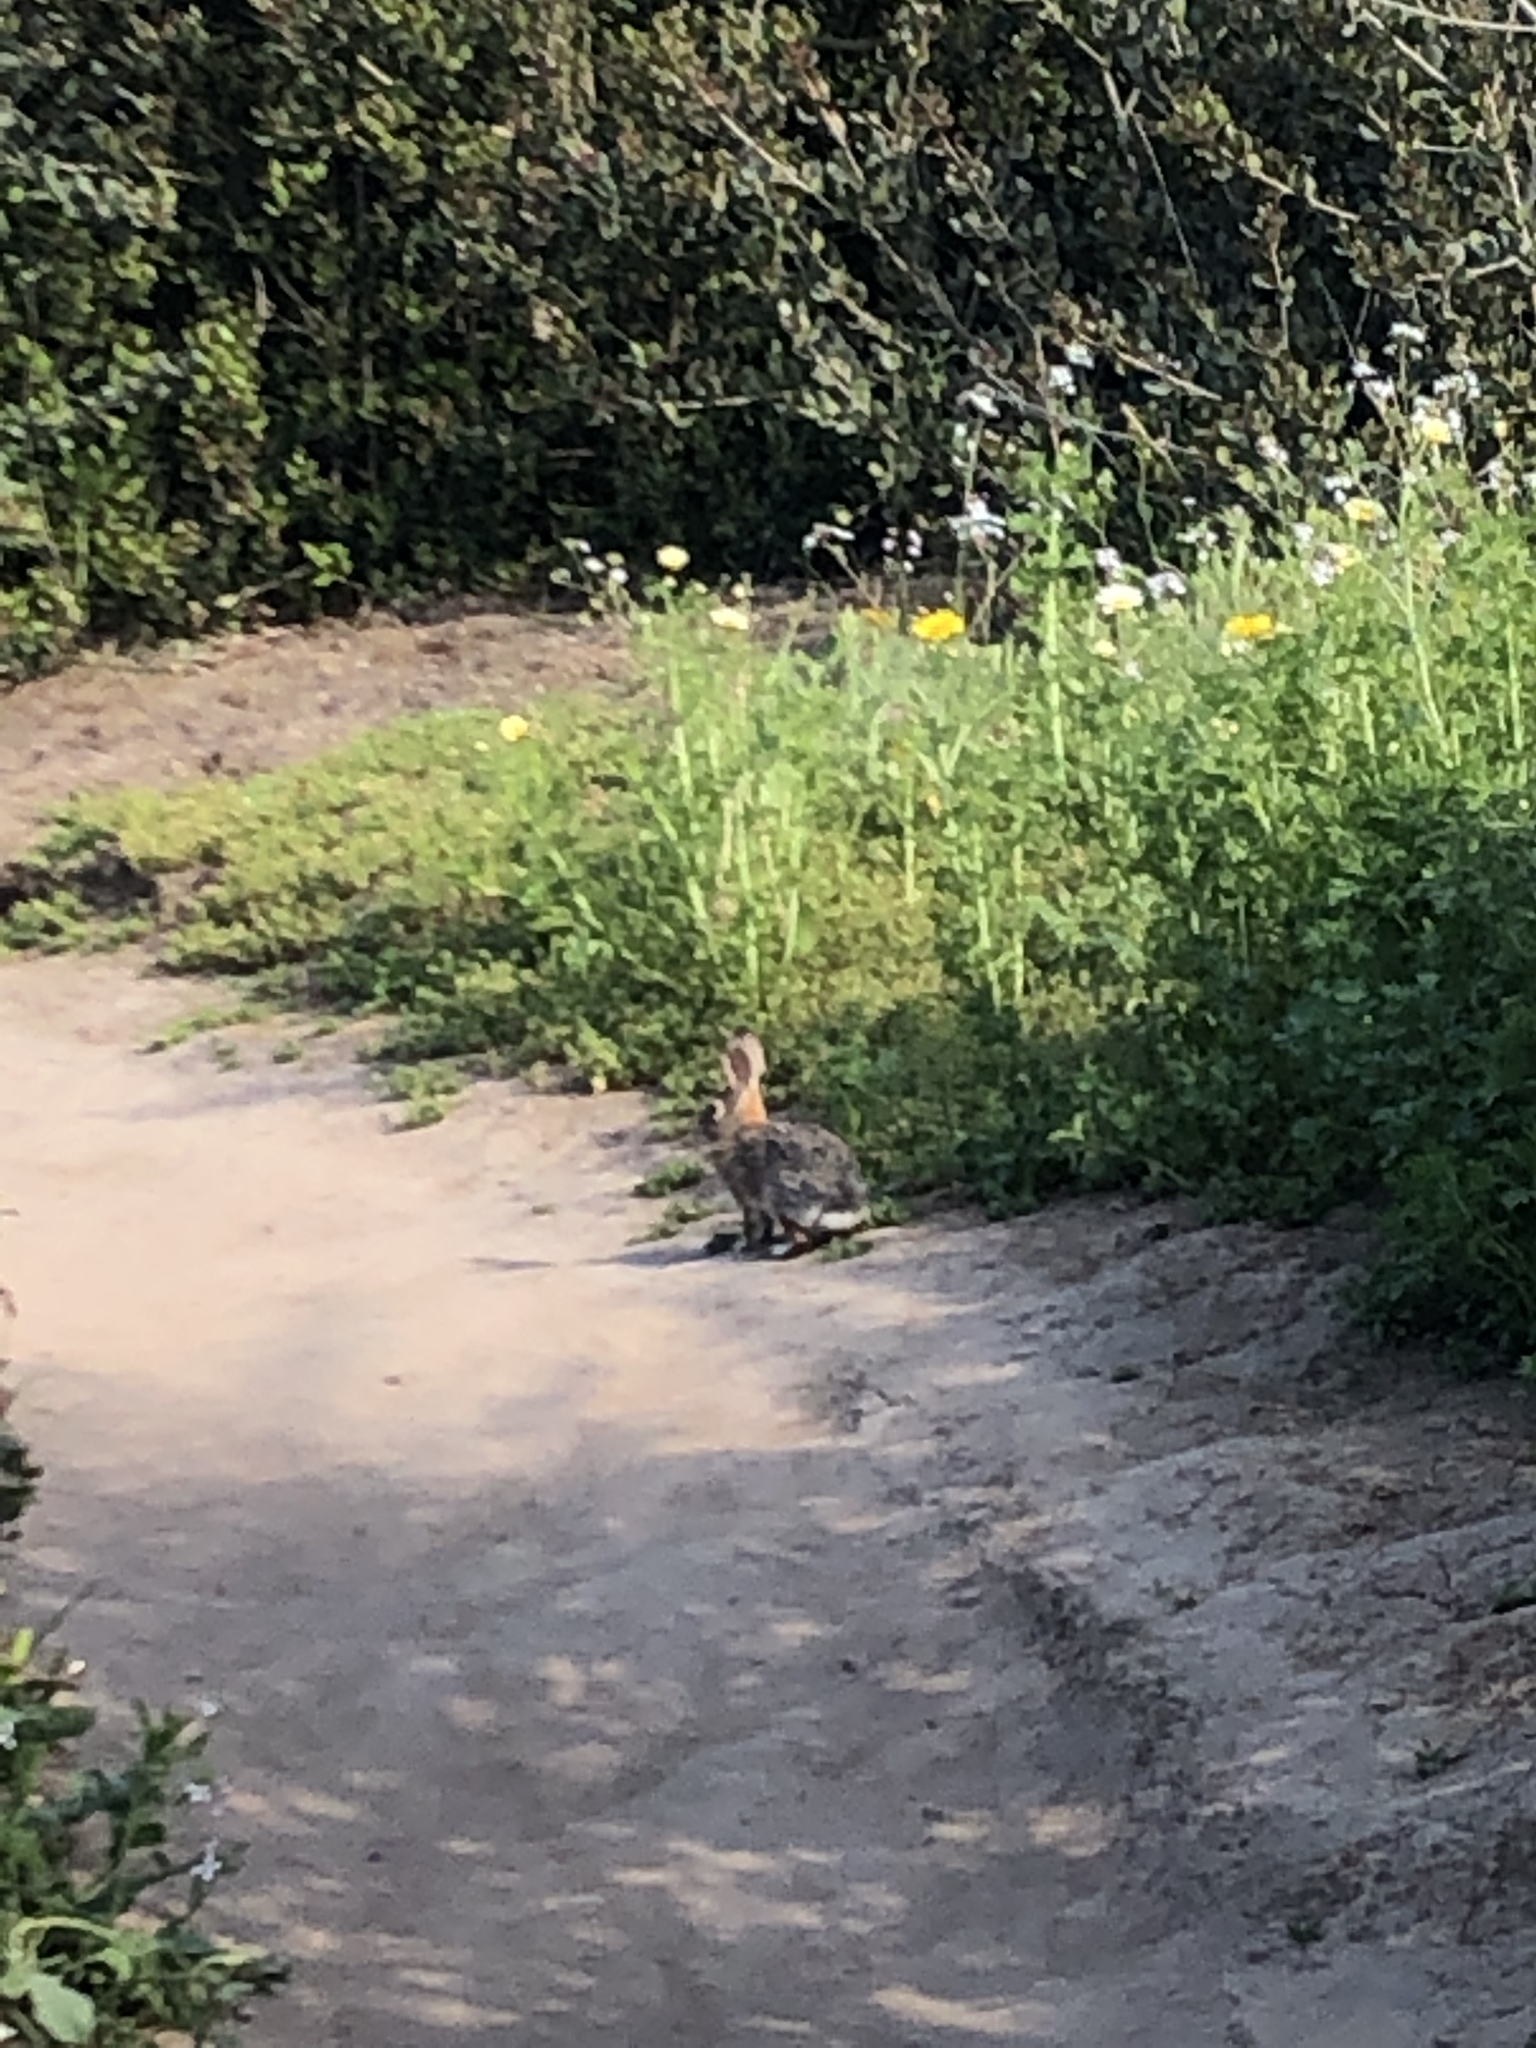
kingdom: Animalia
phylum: Chordata
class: Mammalia
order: Lagomorpha
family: Leporidae
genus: Sylvilagus
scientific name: Sylvilagus audubonii
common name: Desert cottontail
